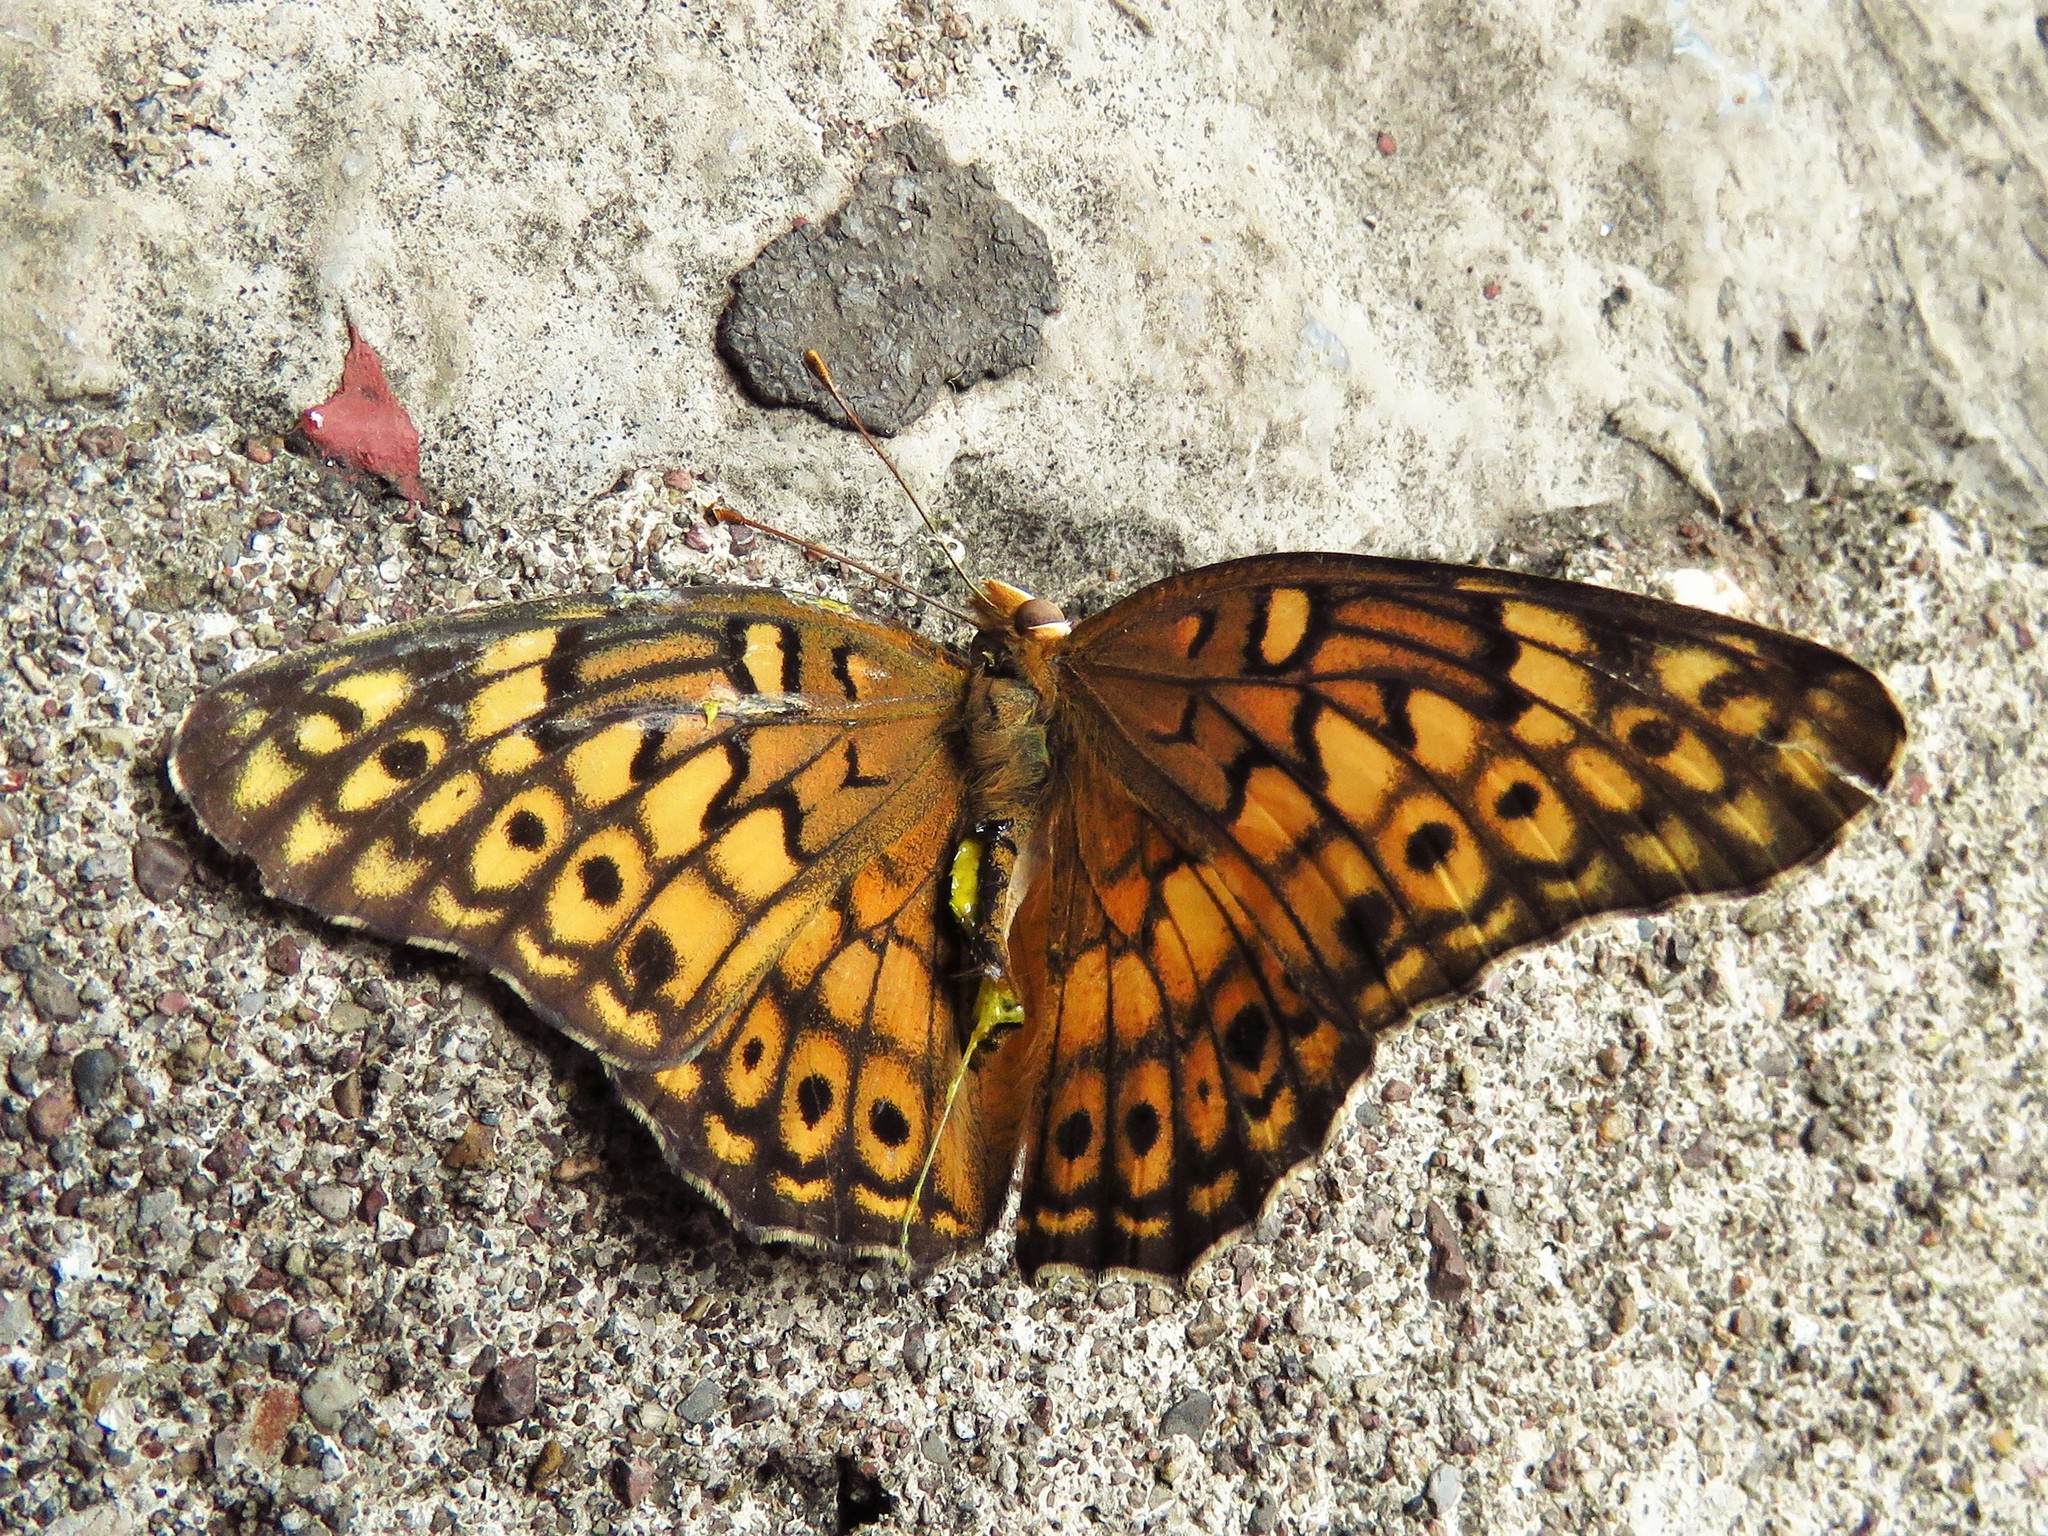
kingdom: Animalia
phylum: Arthropoda
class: Insecta
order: Lepidoptera
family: Nymphalidae
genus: Euptoieta
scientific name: Euptoieta claudia
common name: Variegated fritillary
